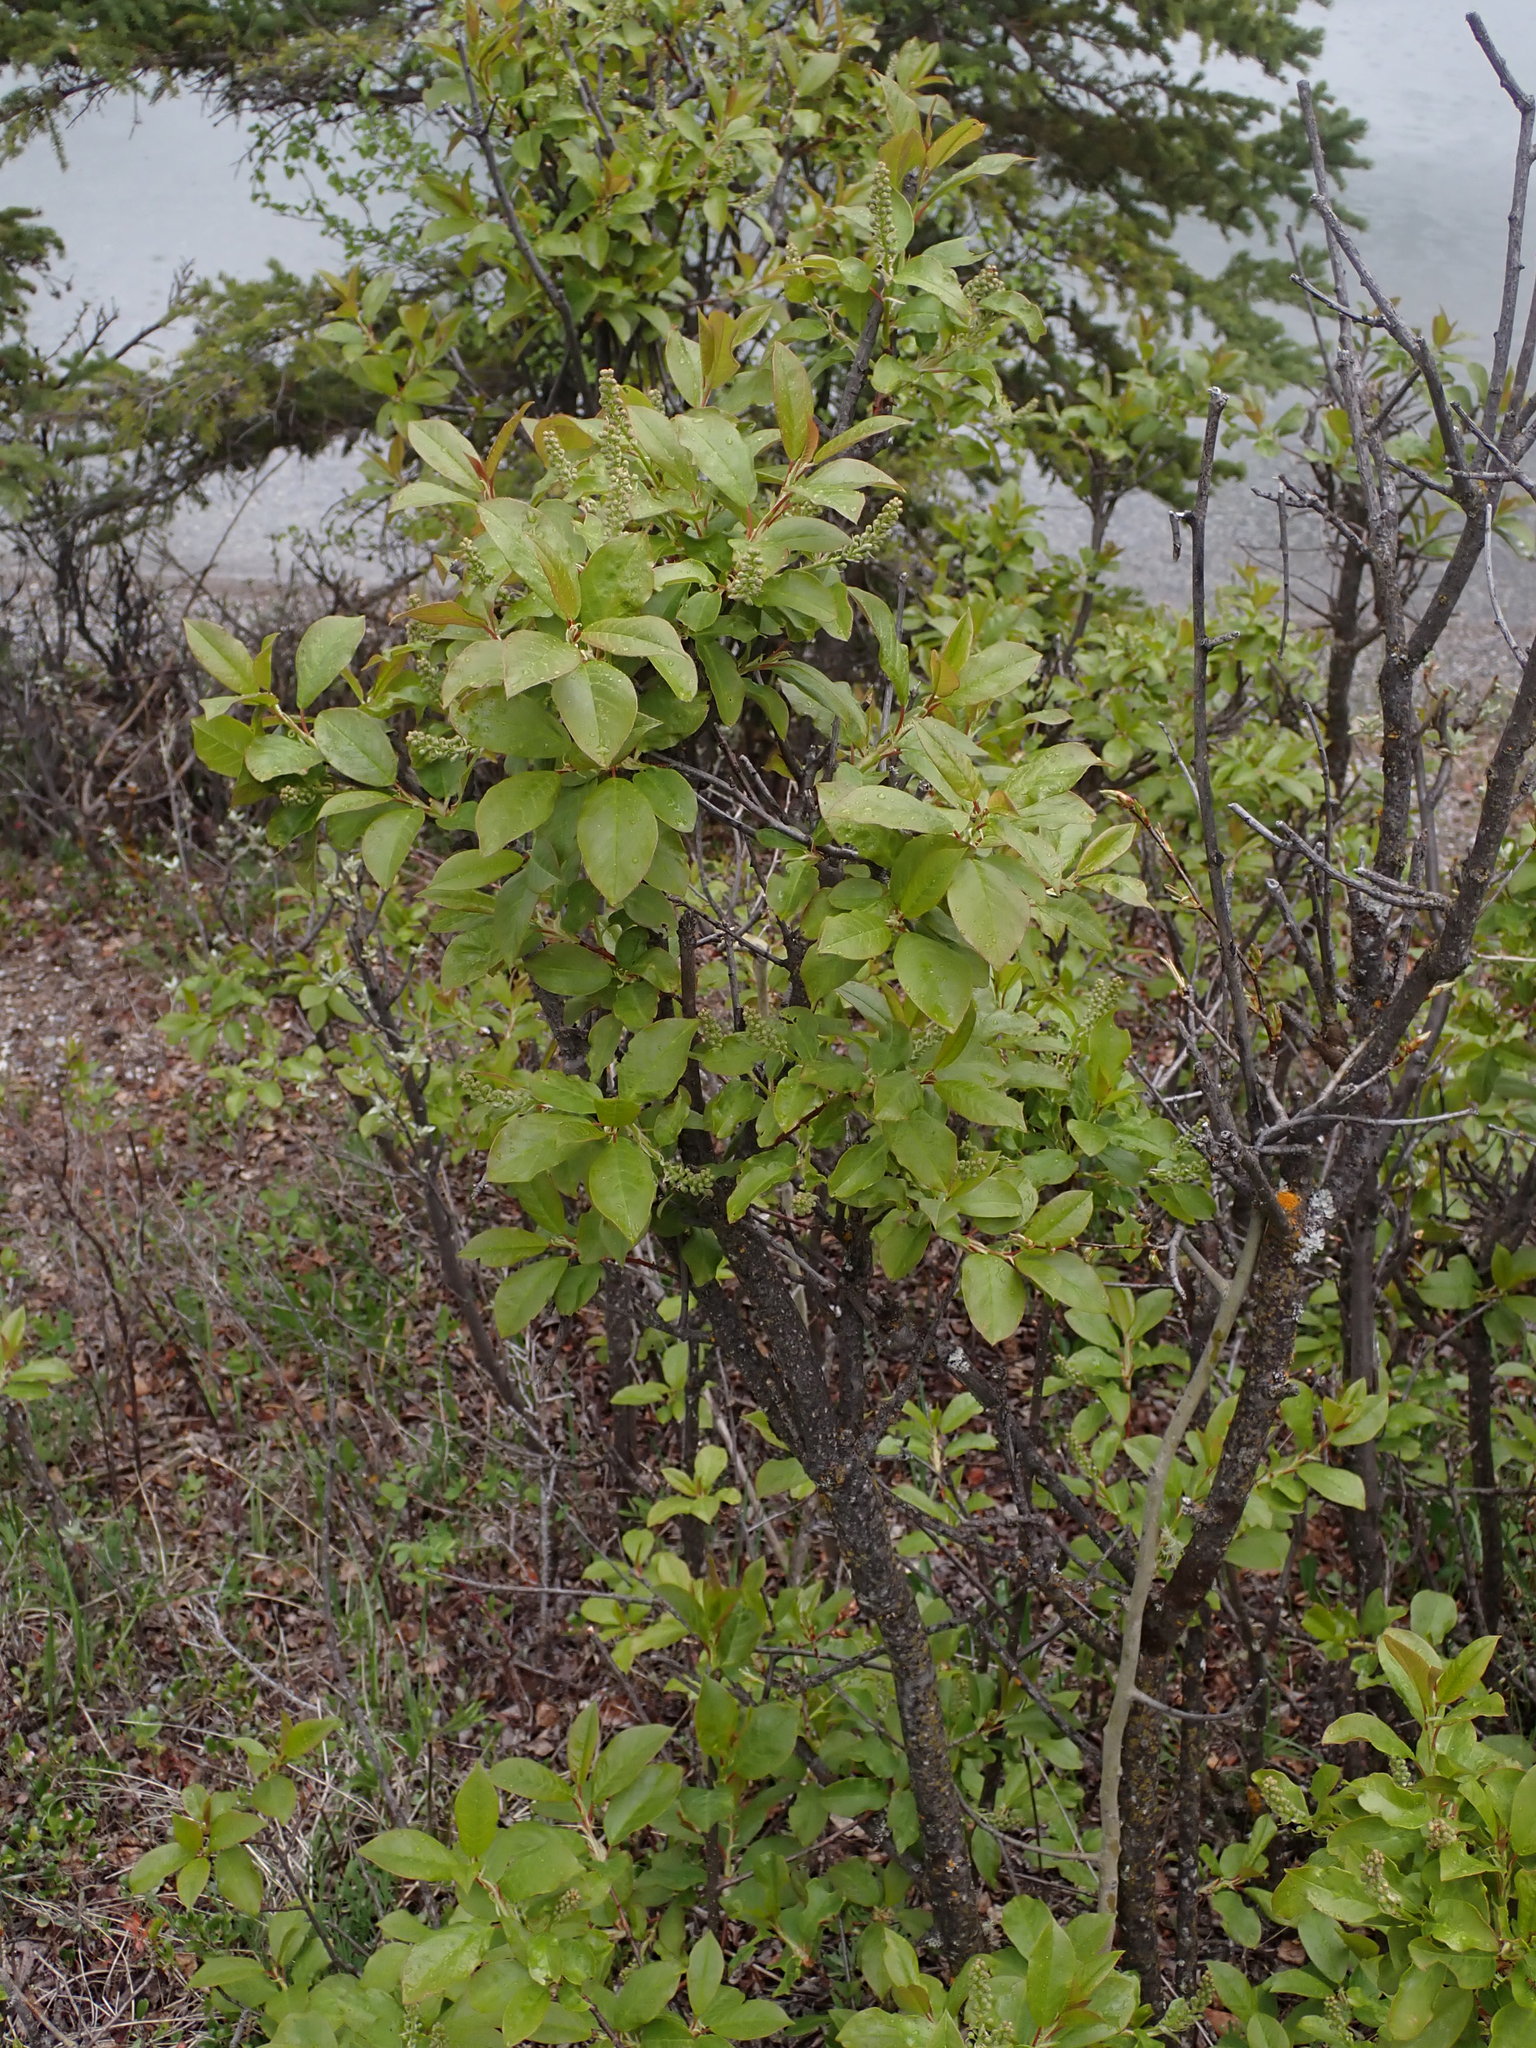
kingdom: Plantae
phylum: Tracheophyta
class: Magnoliopsida
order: Rosales
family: Rosaceae
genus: Prunus
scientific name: Prunus virginiana
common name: Chokecherry
